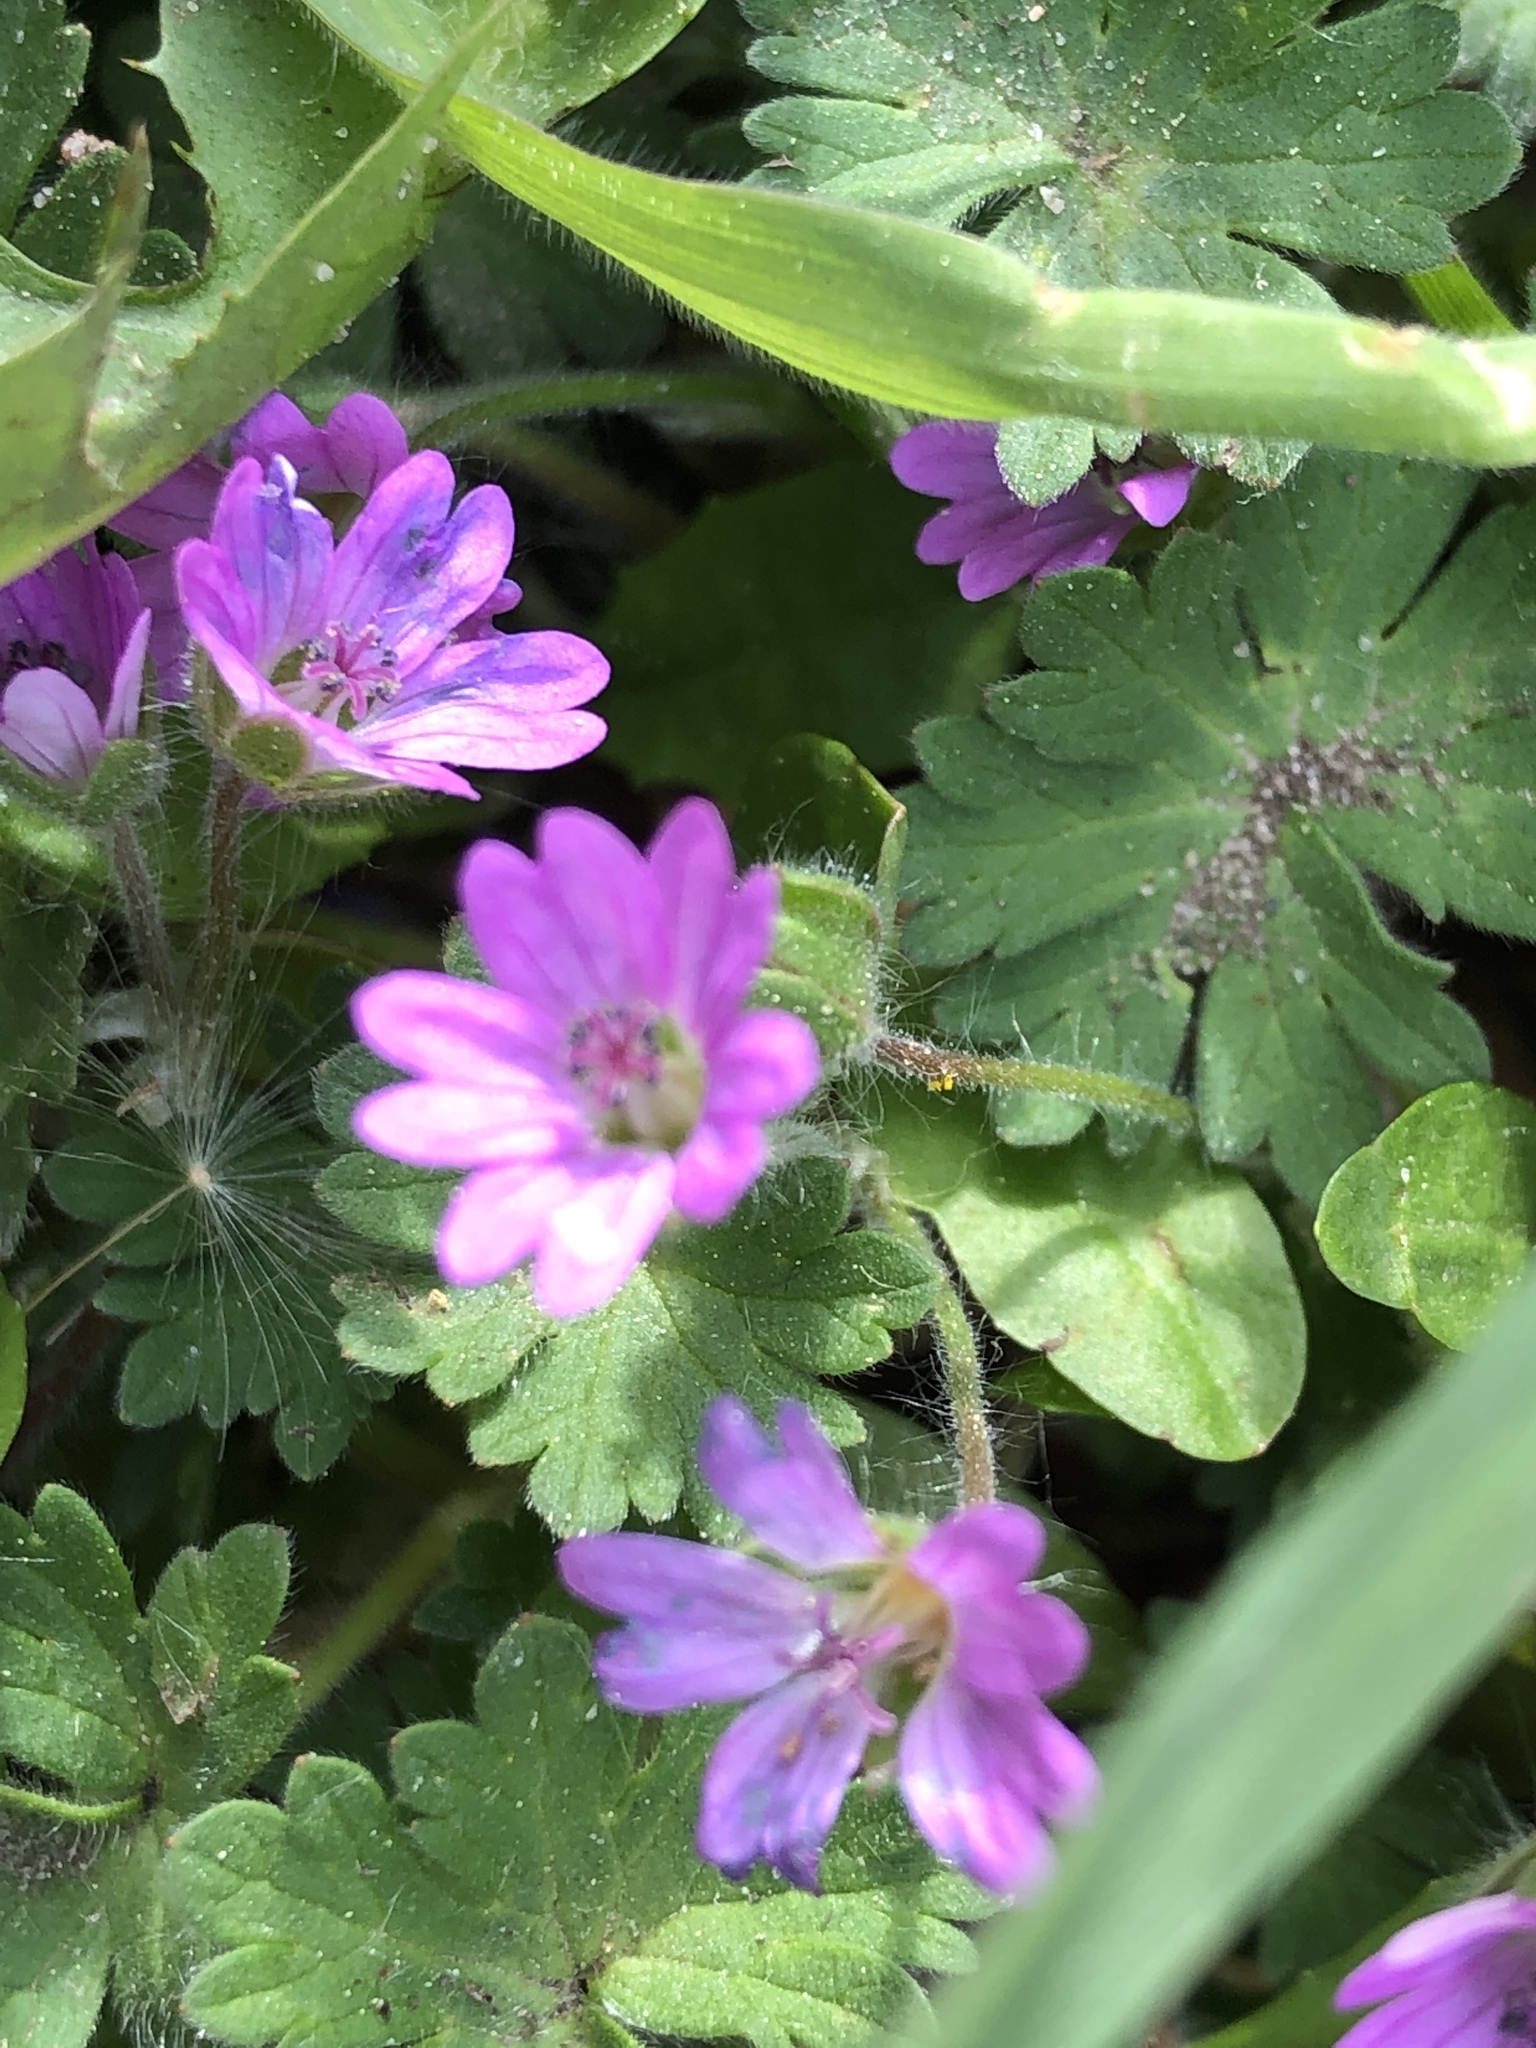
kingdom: Plantae
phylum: Tracheophyta
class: Magnoliopsida
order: Geraniales
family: Geraniaceae
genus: Geranium
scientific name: Geranium molle
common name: Dove's-foot crane's-bill
